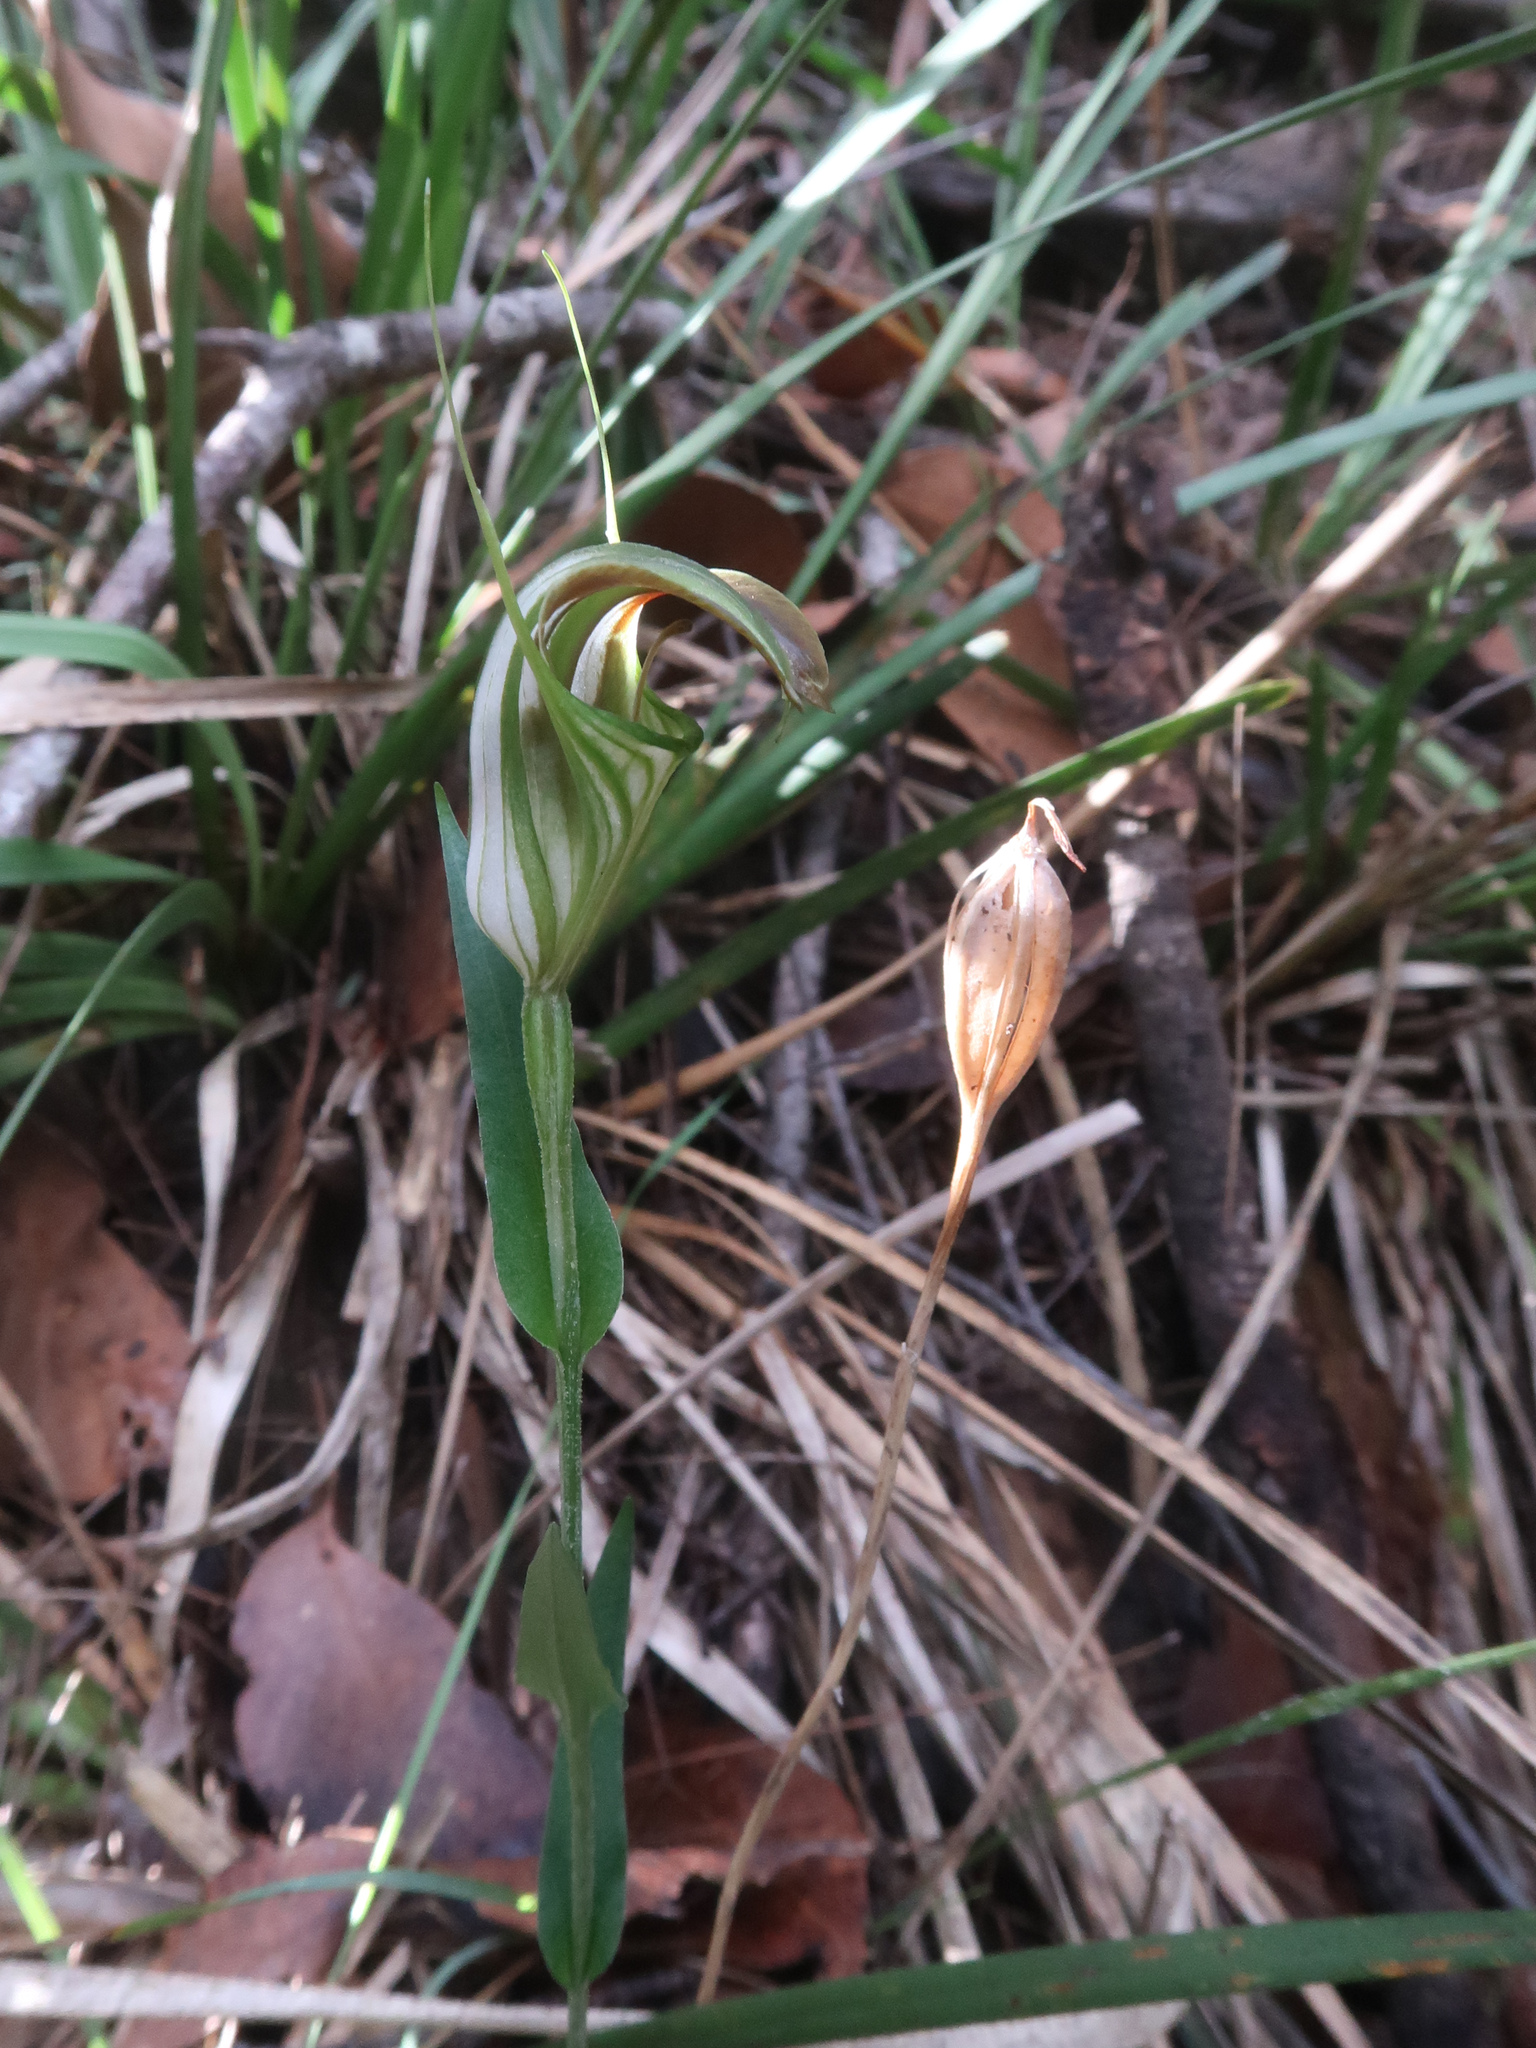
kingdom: Plantae
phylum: Tracheophyta
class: Liliopsida
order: Asparagales
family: Orchidaceae
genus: Pterostylis
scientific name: Pterostylis grandiflora
